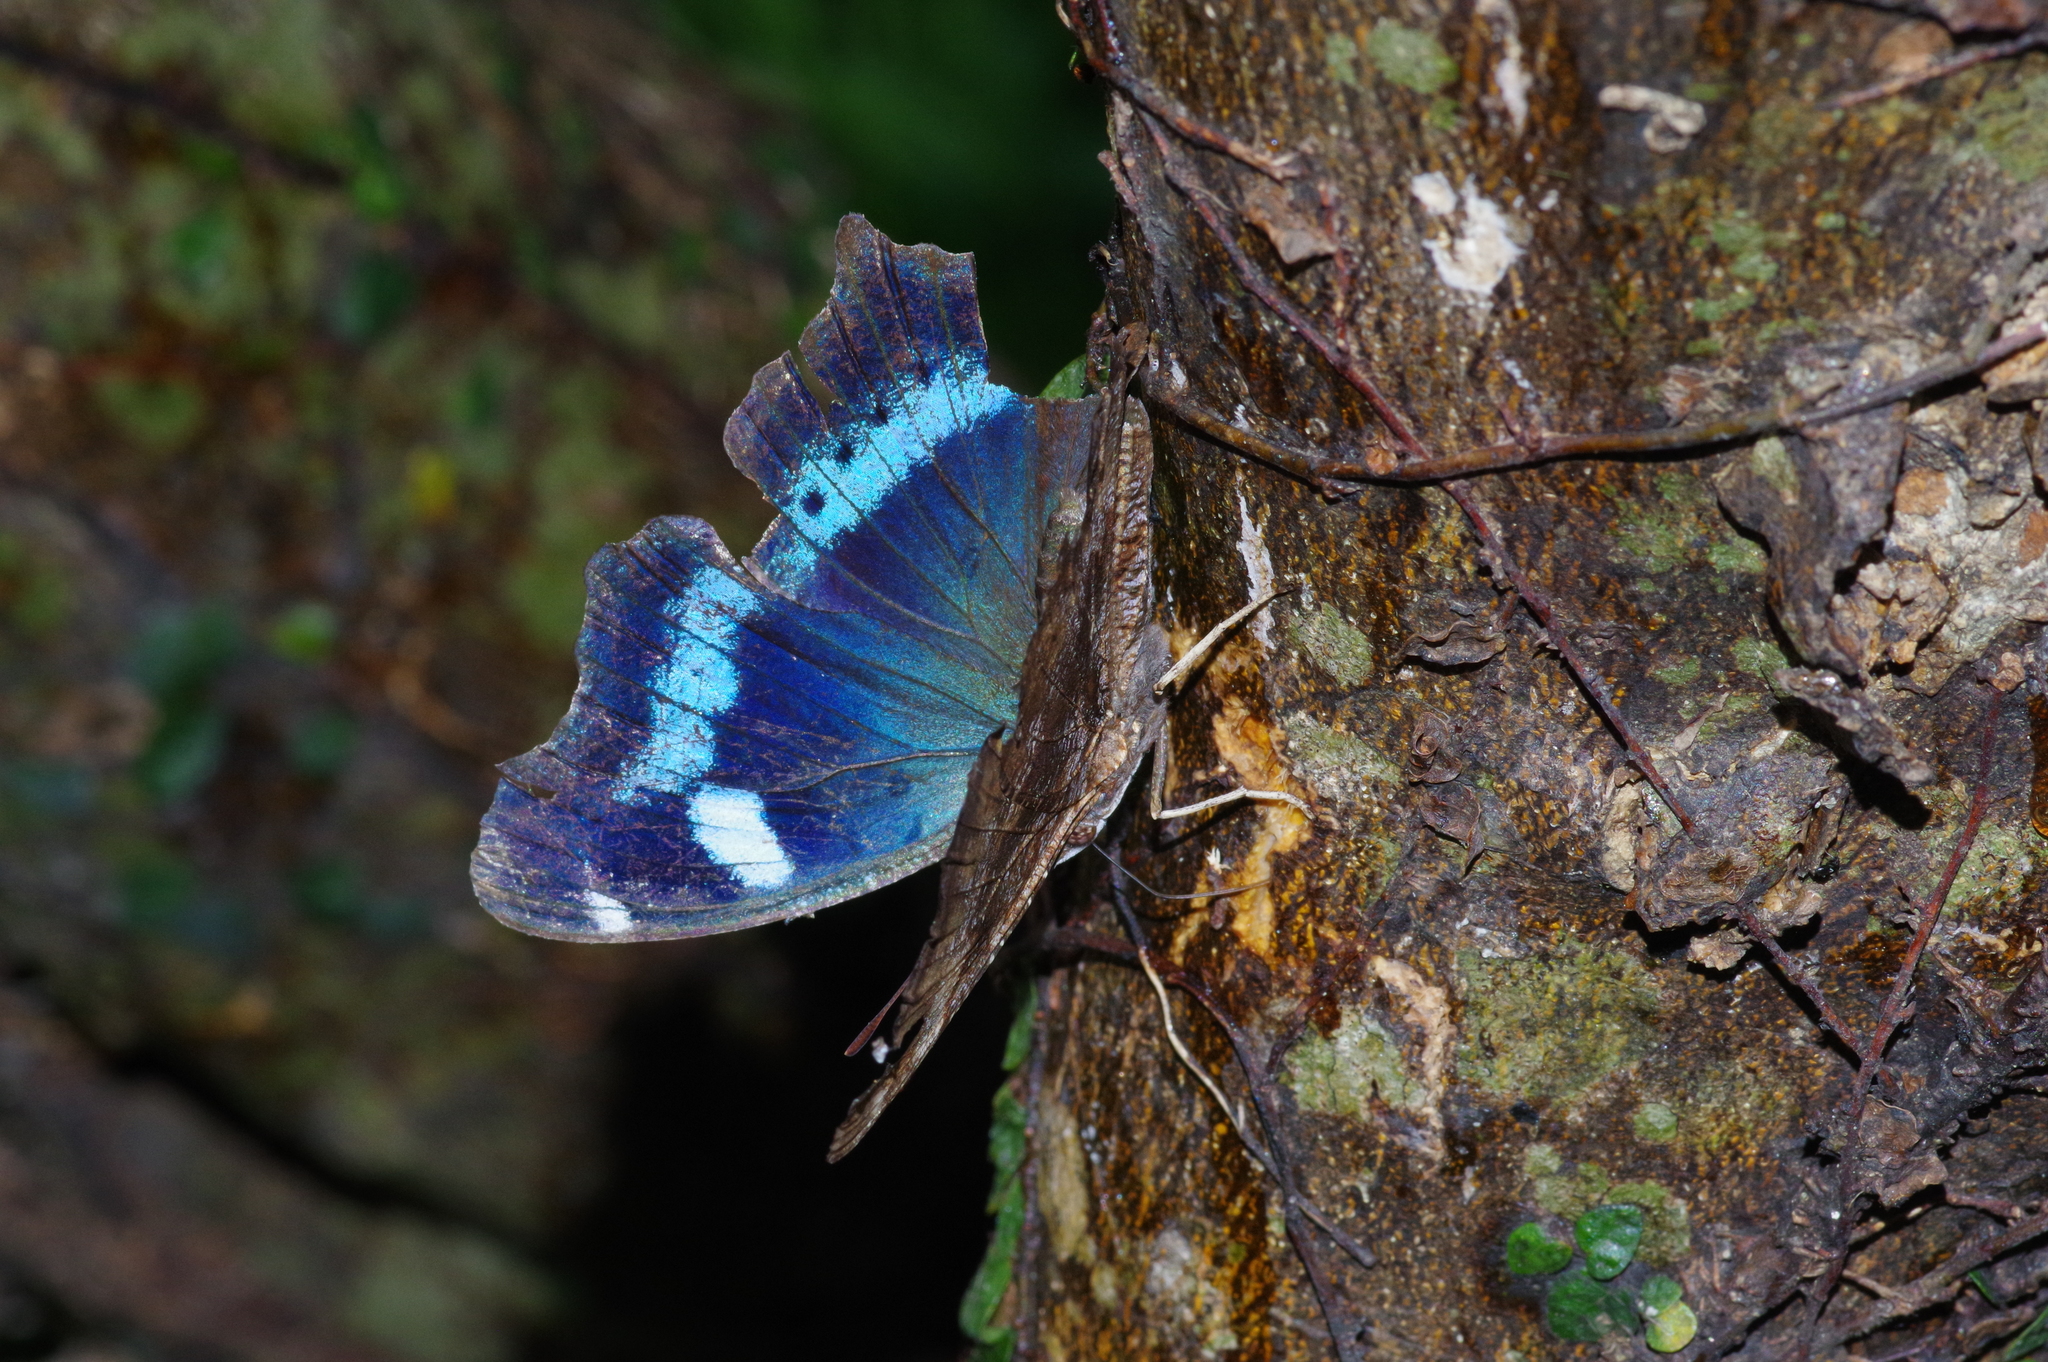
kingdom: Animalia
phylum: Arthropoda
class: Insecta
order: Lepidoptera
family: Nymphalidae
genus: Vanessa
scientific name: Vanessa Kaniska canace
